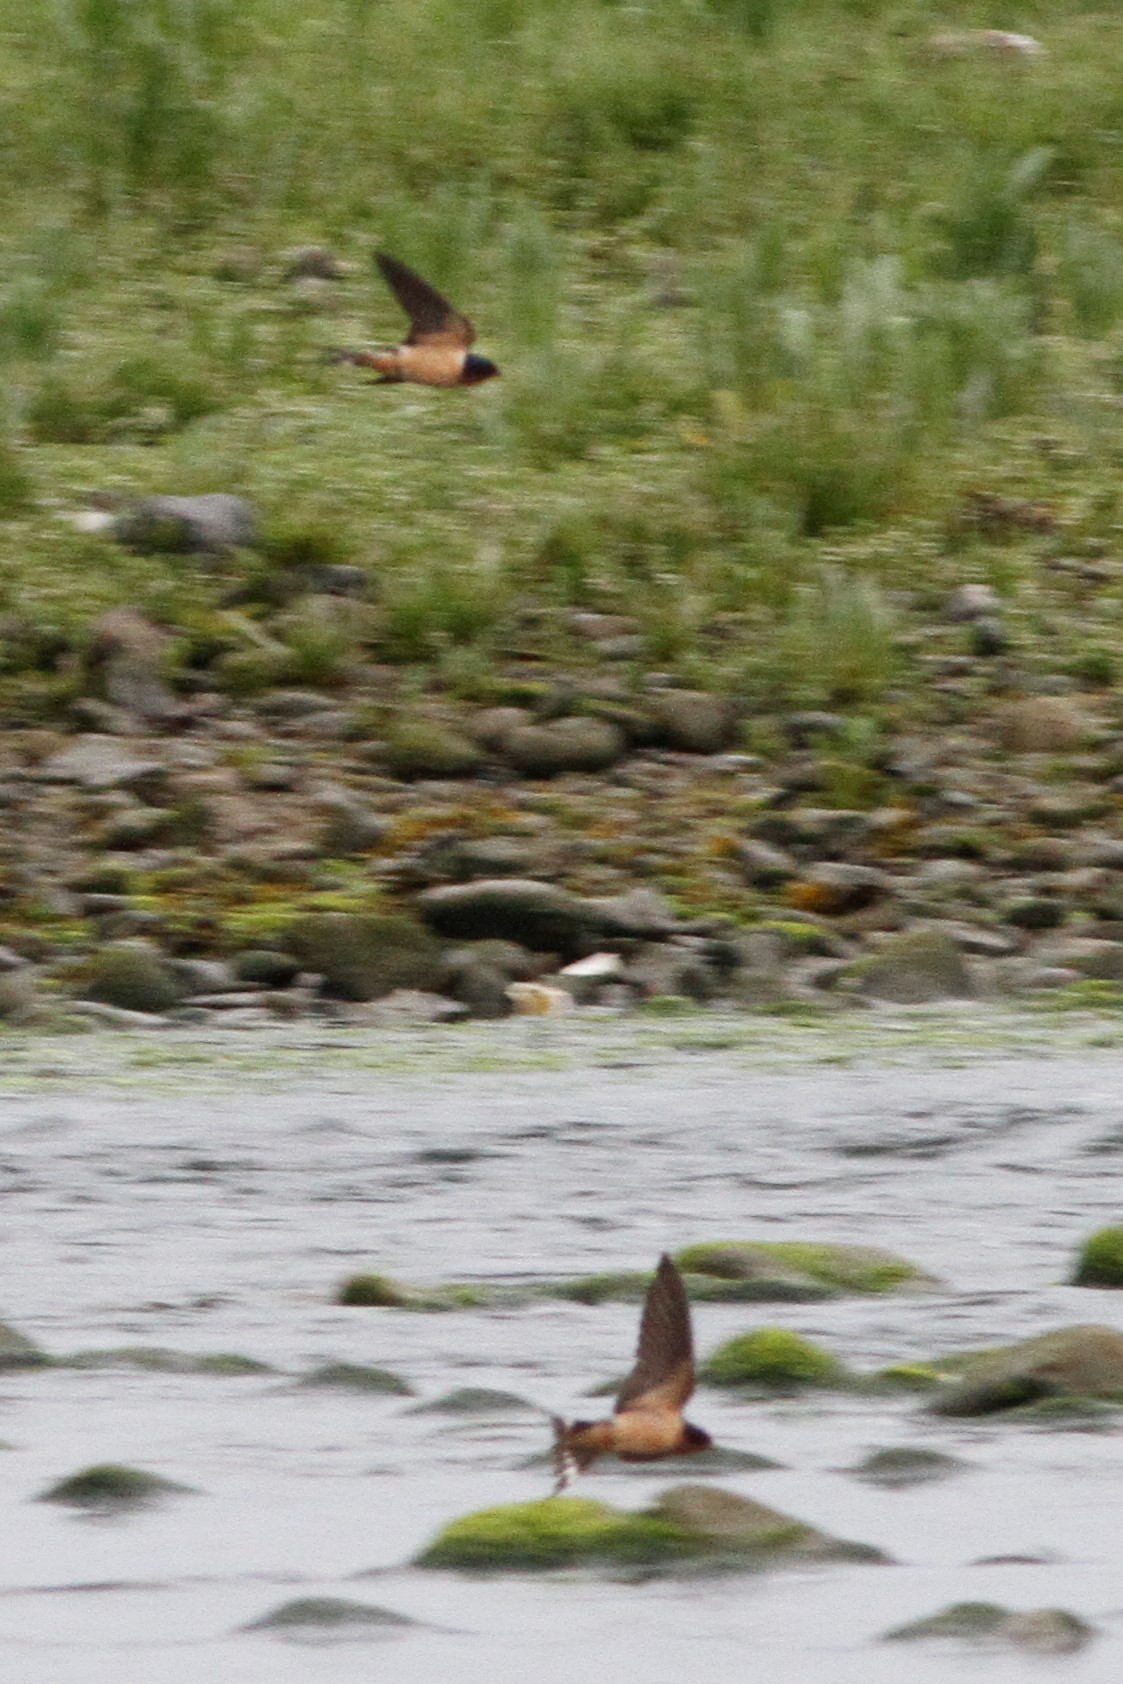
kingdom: Animalia
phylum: Chordata
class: Aves
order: Passeriformes
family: Hirundinidae
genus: Hirundo
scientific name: Hirundo rustica
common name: Barn swallow
